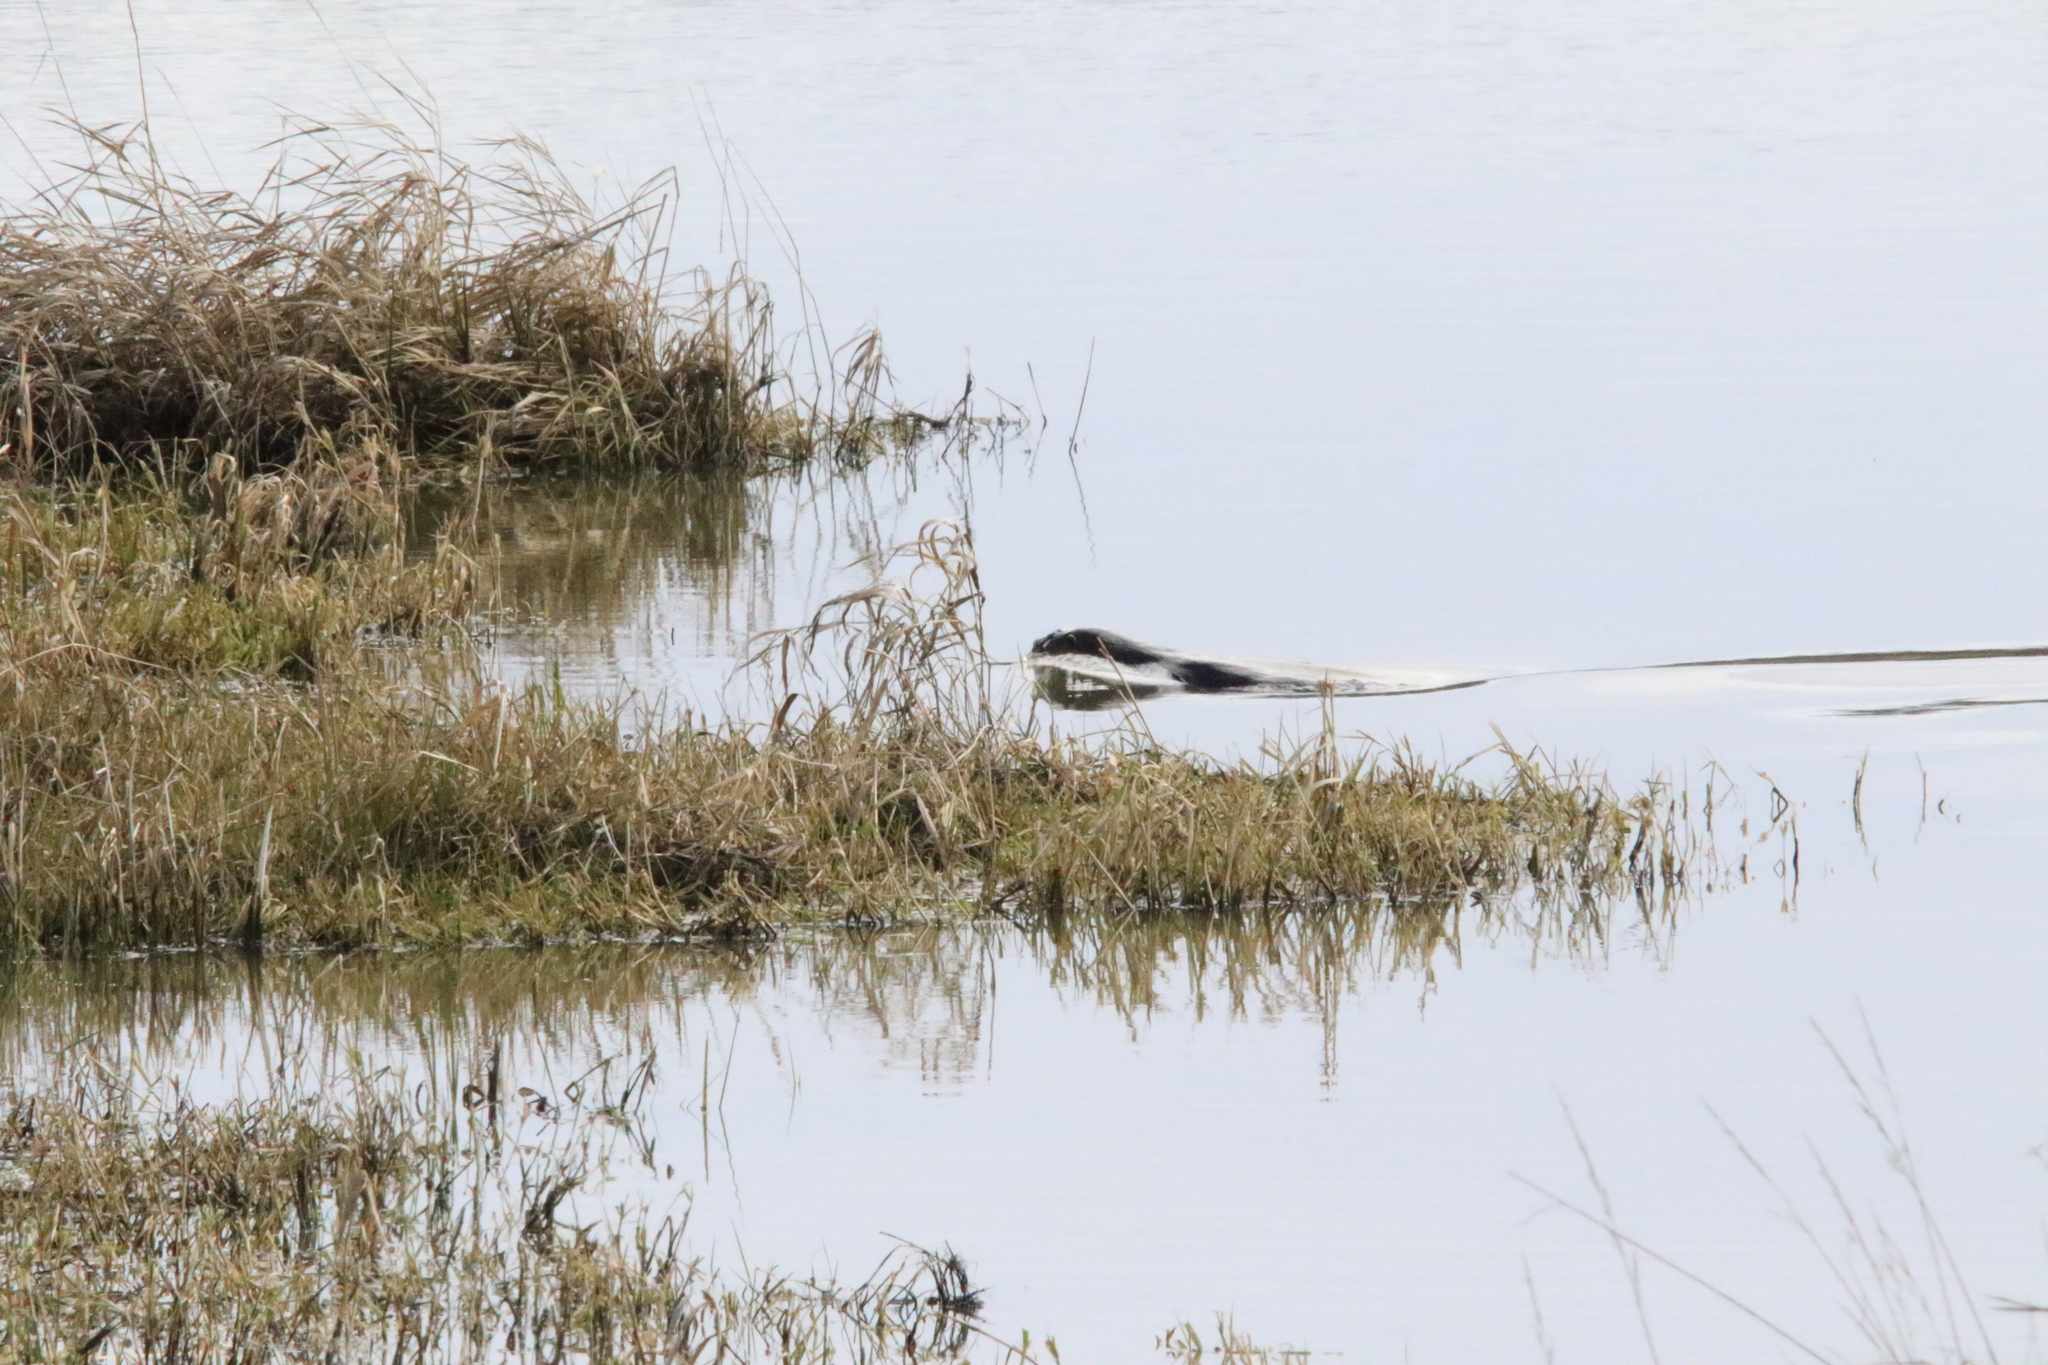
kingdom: Animalia
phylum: Chordata
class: Mammalia
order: Carnivora
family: Mustelidae
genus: Lontra
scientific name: Lontra canadensis
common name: North american river otter
